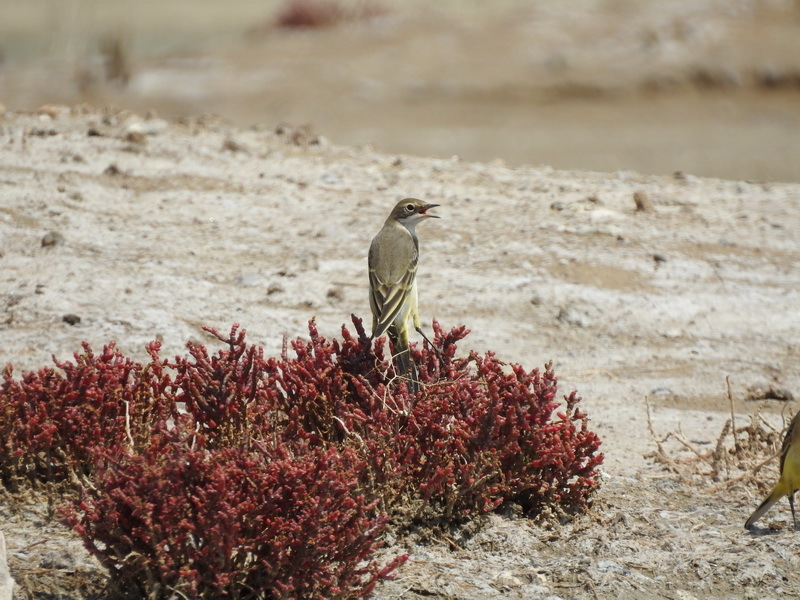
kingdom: Animalia
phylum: Chordata
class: Aves
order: Passeriformes
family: Motacillidae
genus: Motacilla
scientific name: Motacilla flava
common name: Western yellow wagtail
